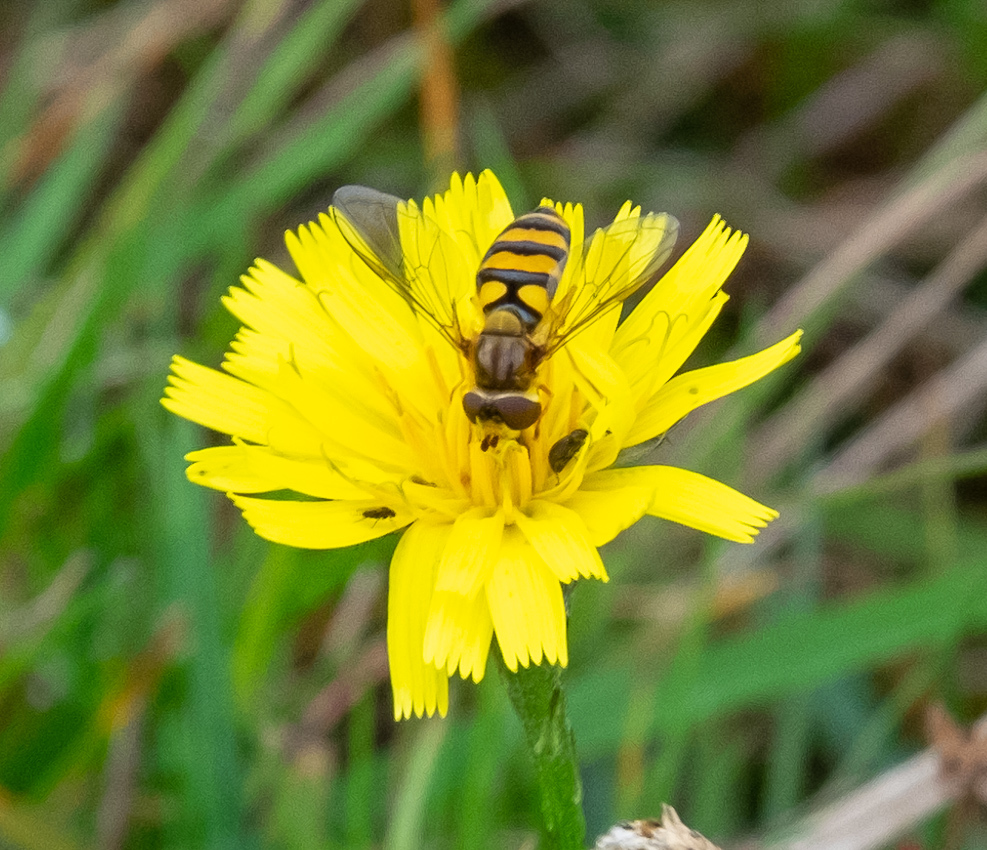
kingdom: Animalia
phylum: Arthropoda
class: Insecta
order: Diptera
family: Syrphidae
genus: Eupeodes
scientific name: Eupeodes latifasciatus
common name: Variable aphideater
